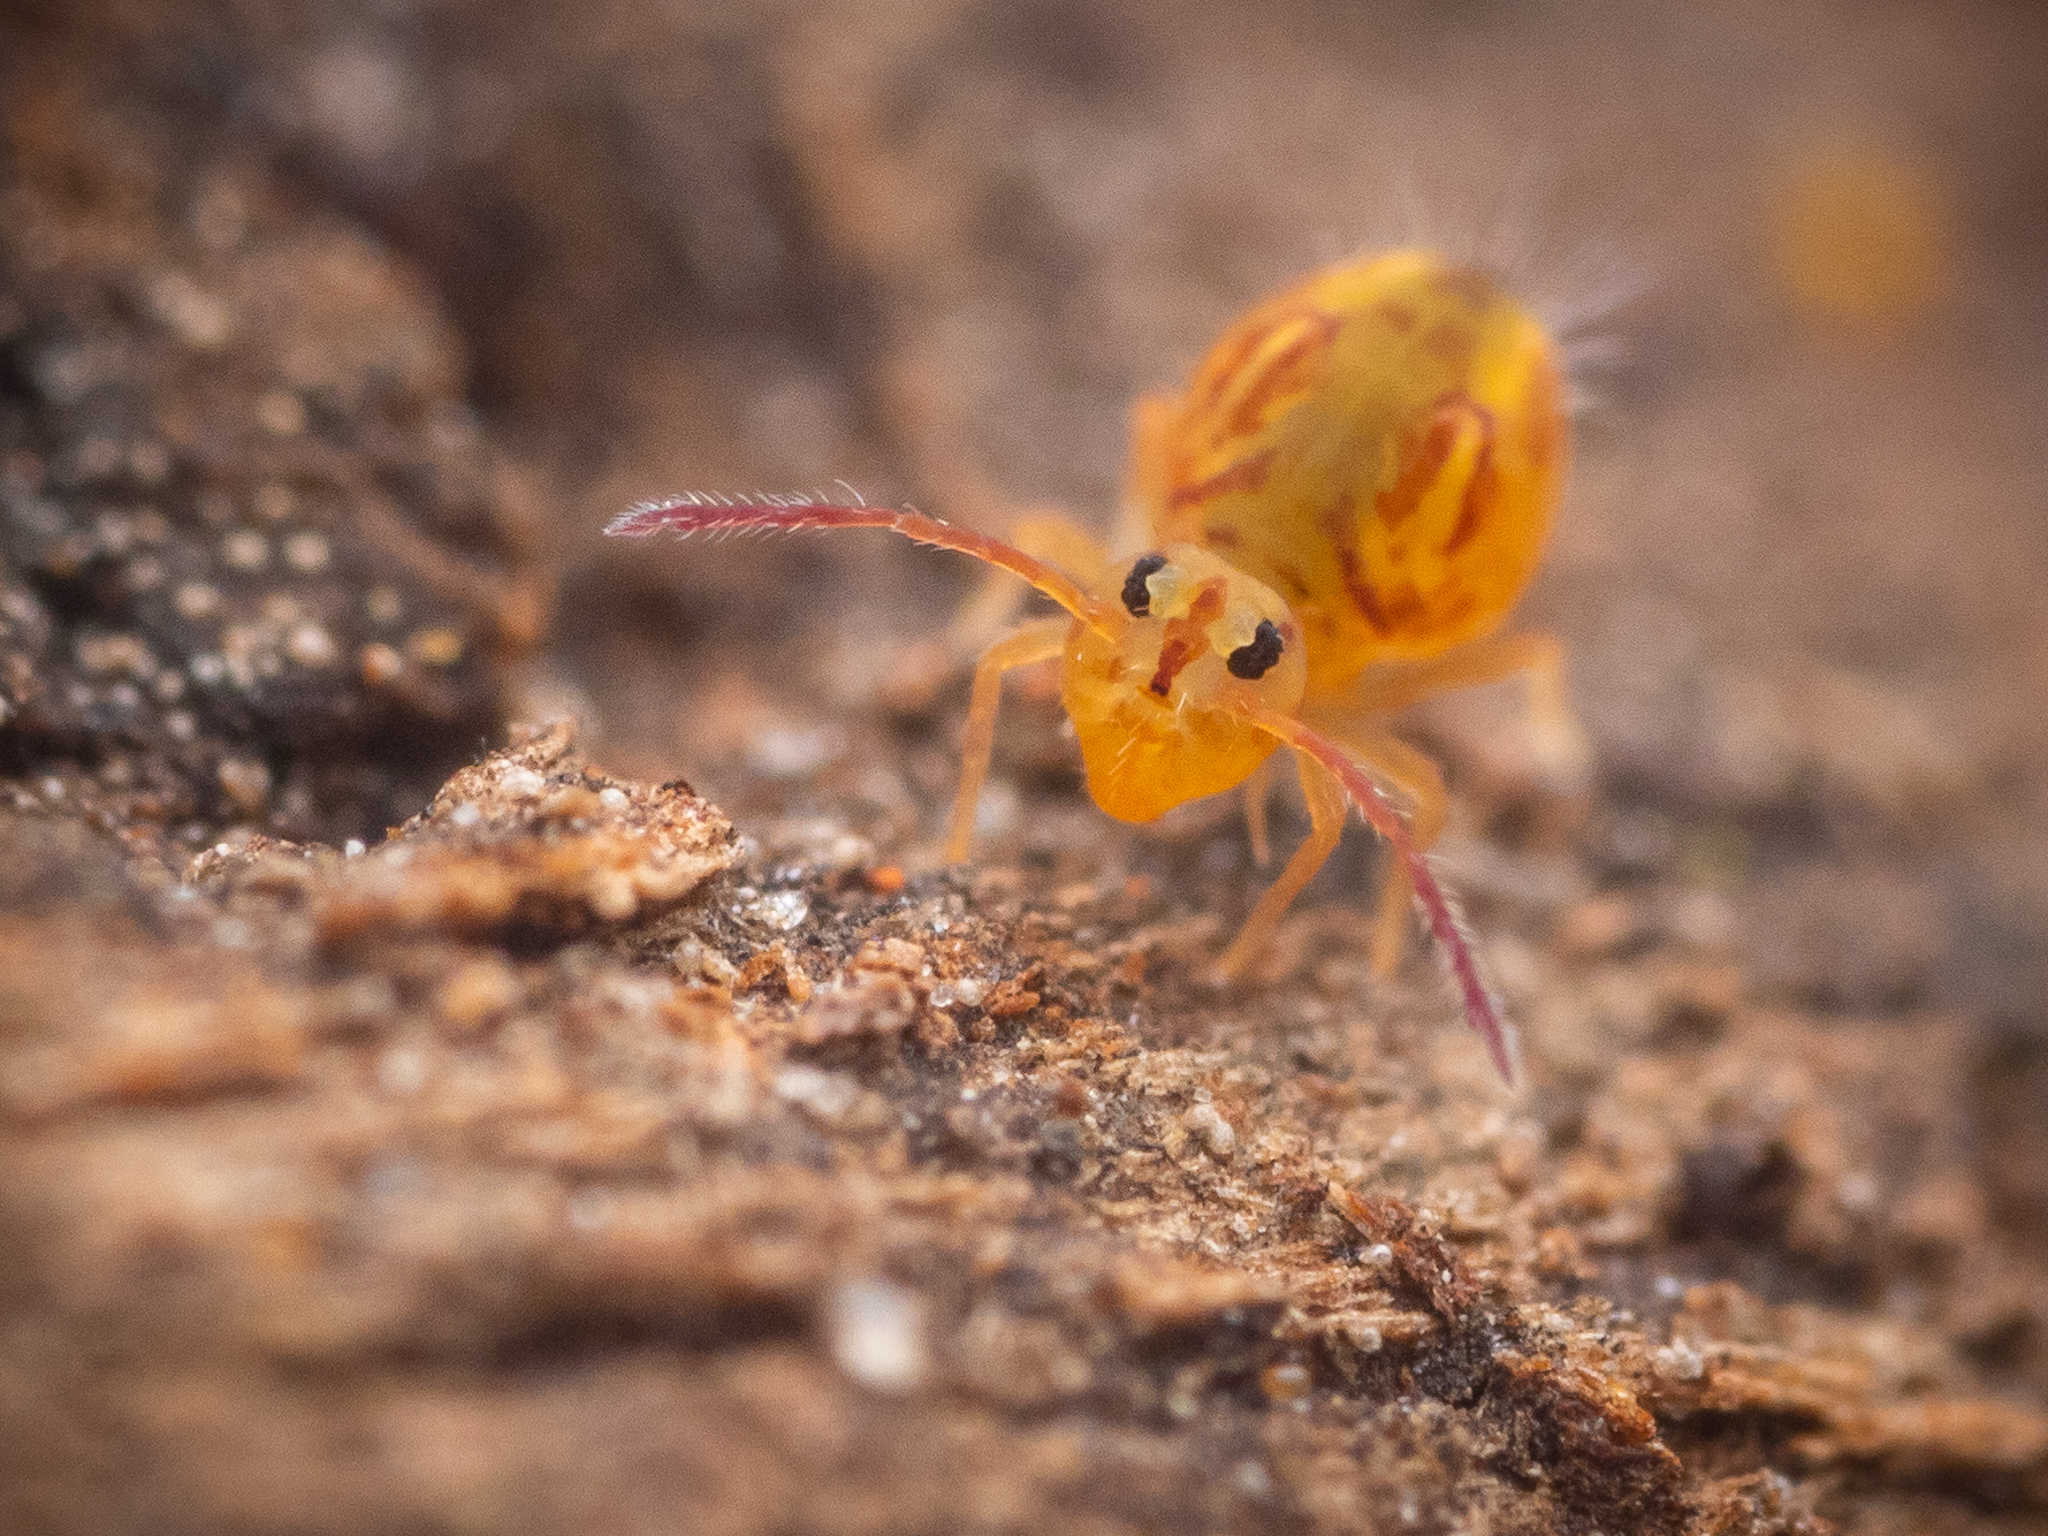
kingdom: Animalia
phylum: Arthropoda
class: Collembola
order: Symphypleona
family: Dicyrtomidae
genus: Dicyrtomina
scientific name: Dicyrtomina ornata
